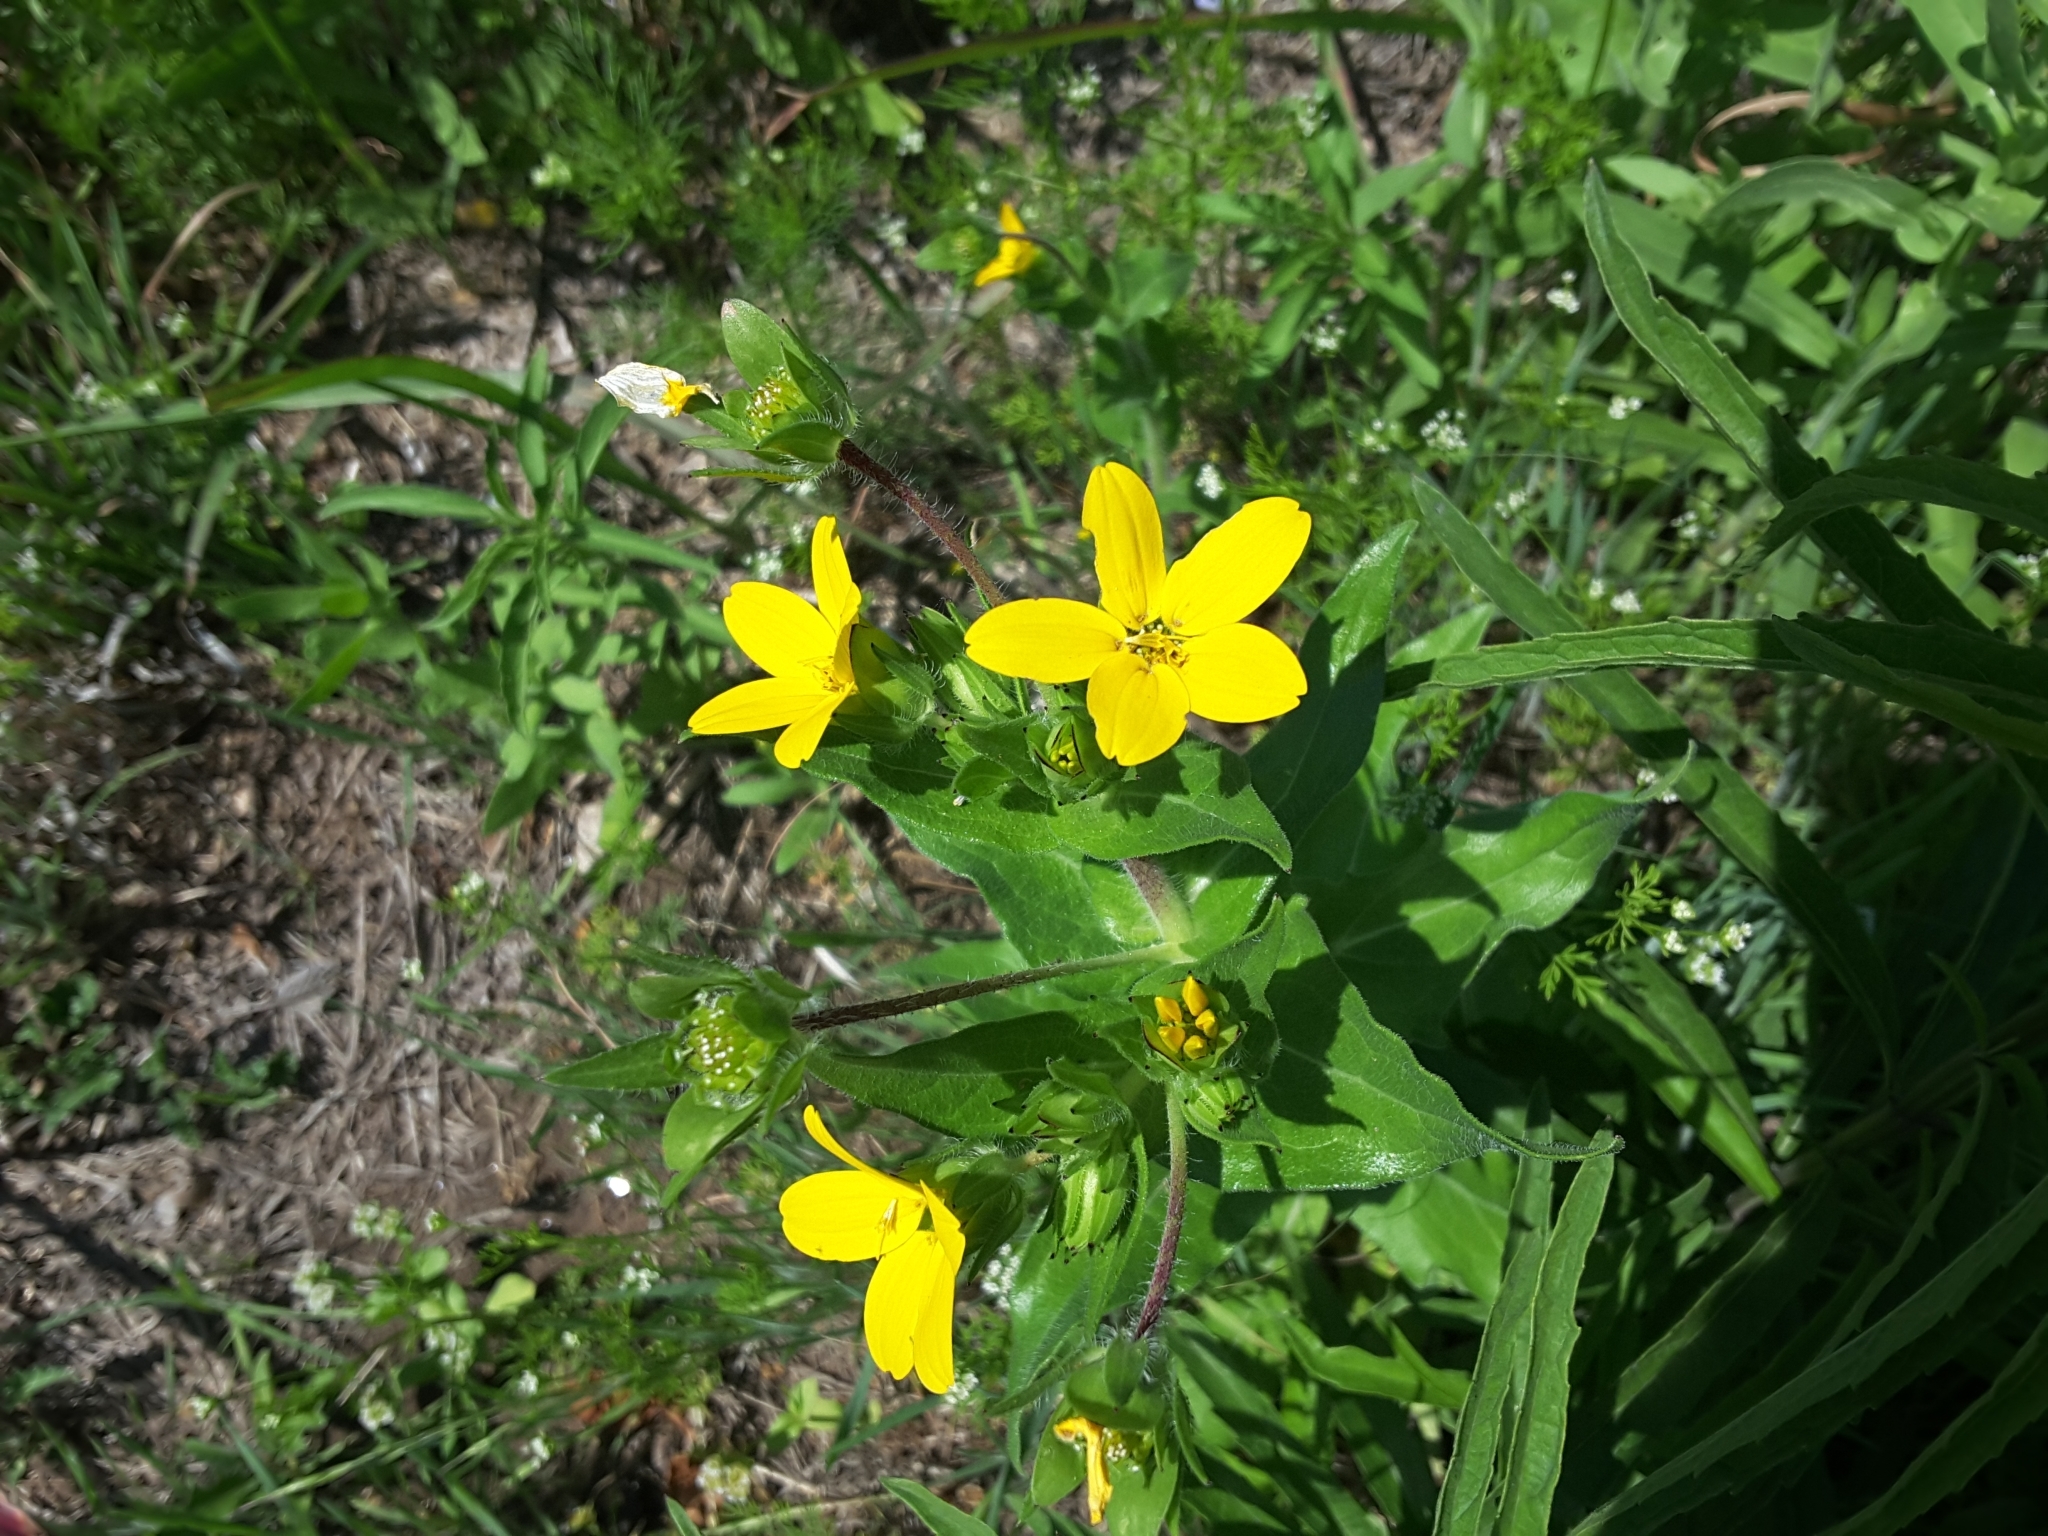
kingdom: Plantae
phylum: Tracheophyta
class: Magnoliopsida
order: Asterales
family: Asteraceae
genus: Lindheimera
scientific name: Lindheimera texana
